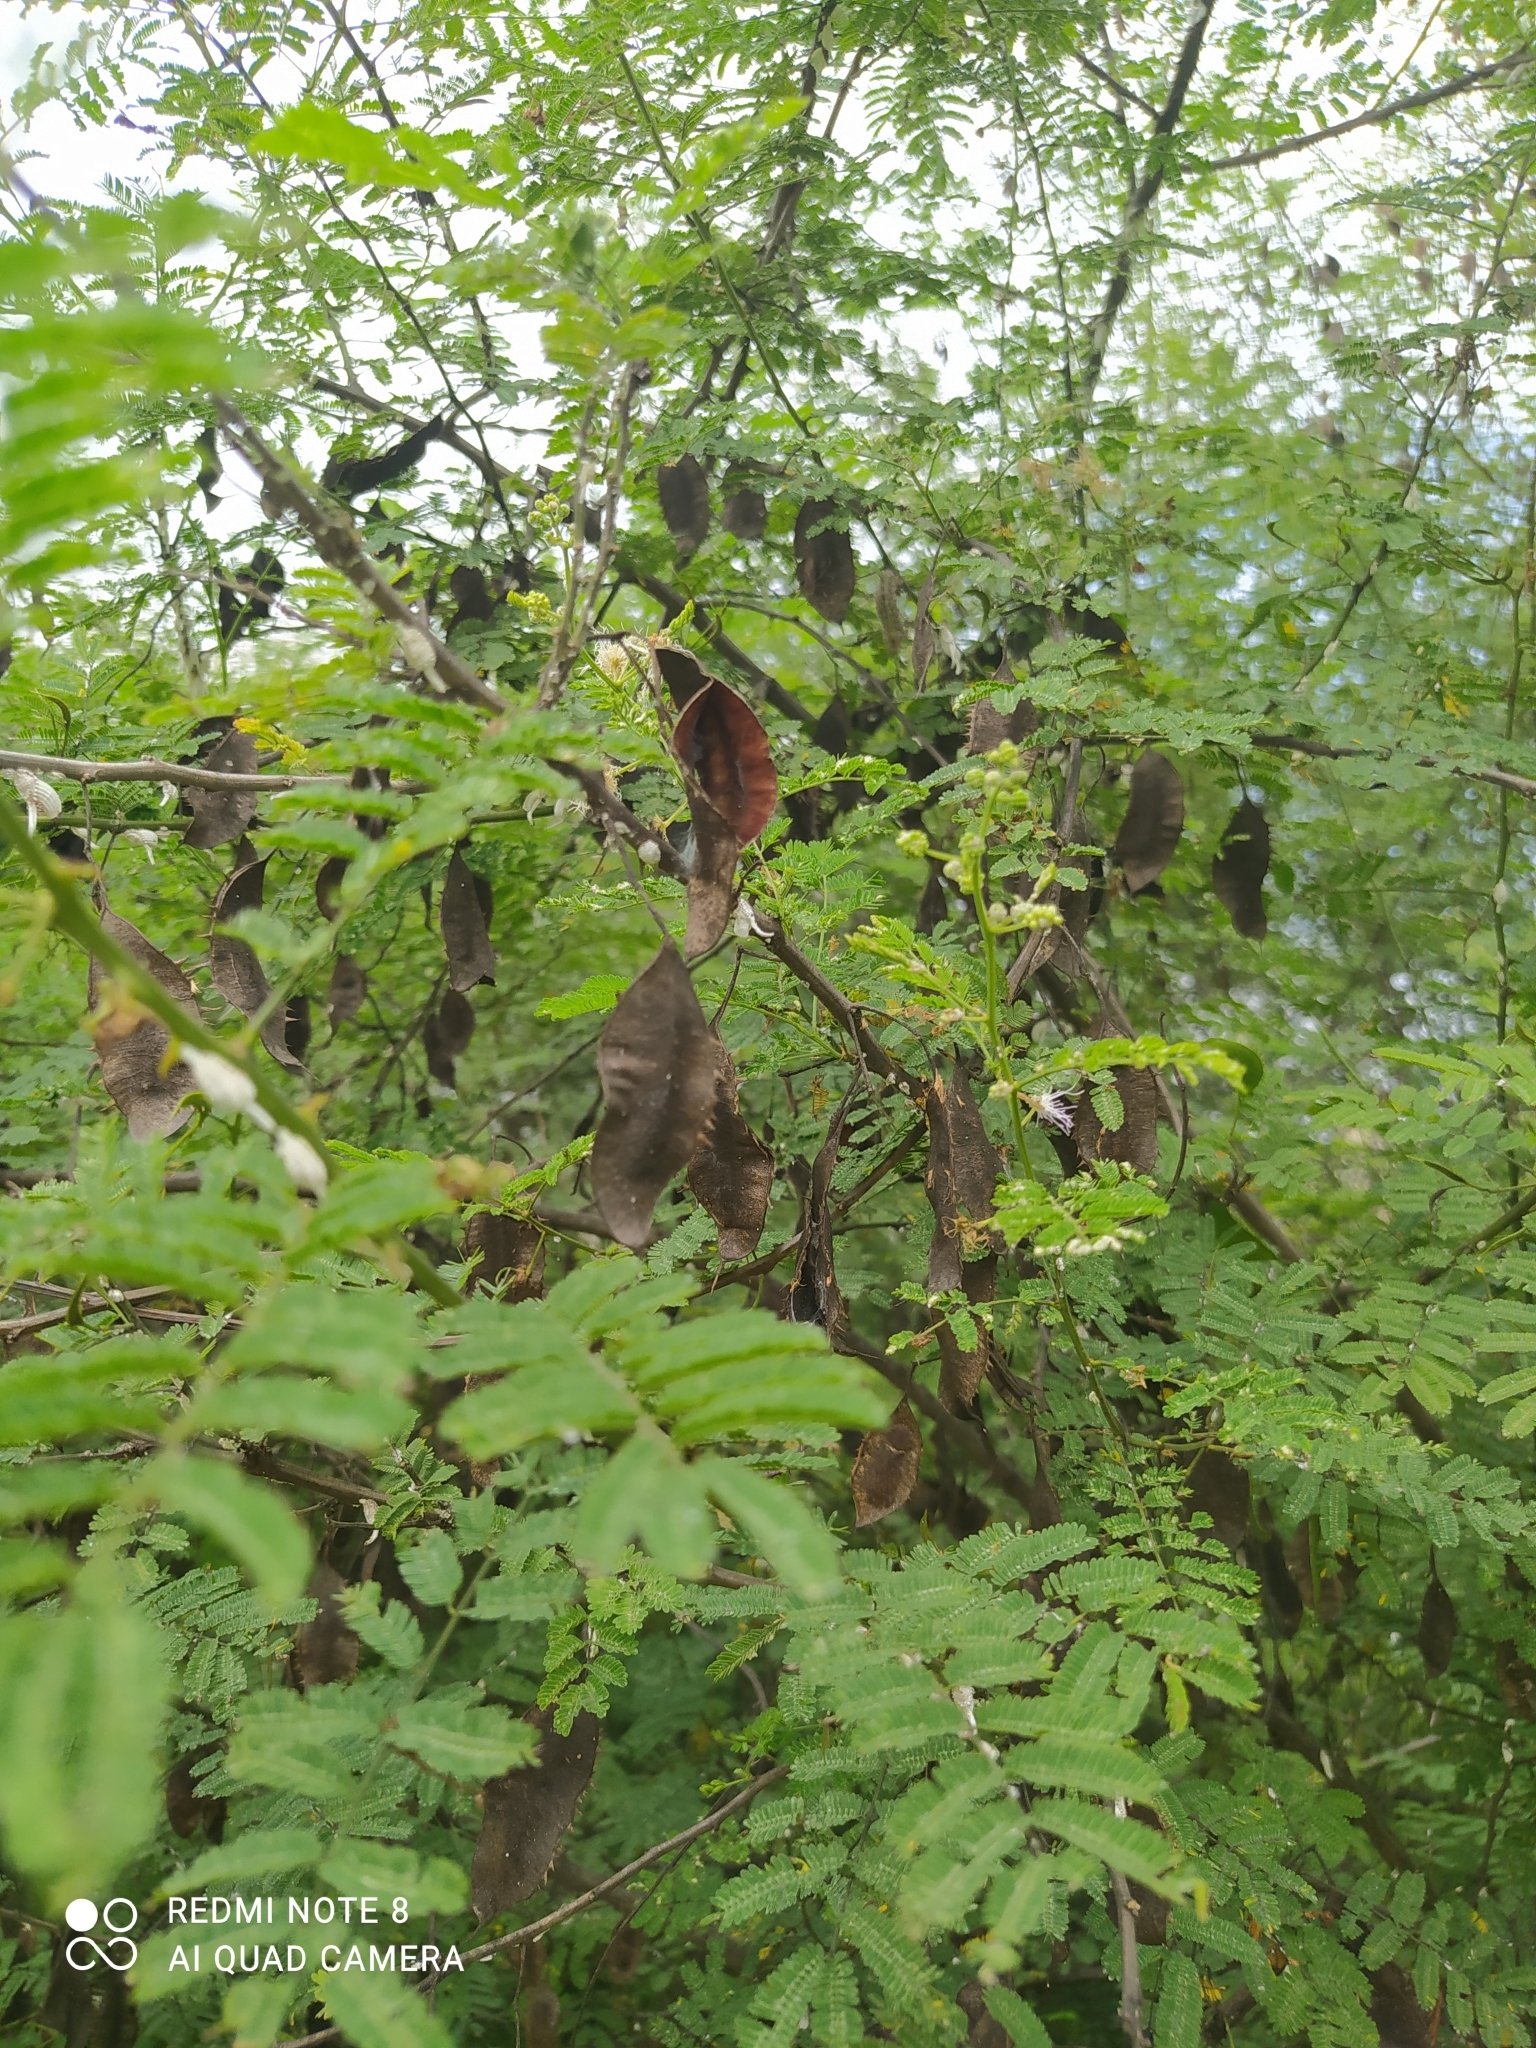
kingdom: Plantae
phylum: Tracheophyta
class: Magnoliopsida
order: Fabales
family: Fabaceae
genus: Mimosa
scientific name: Mimosa quitensis
